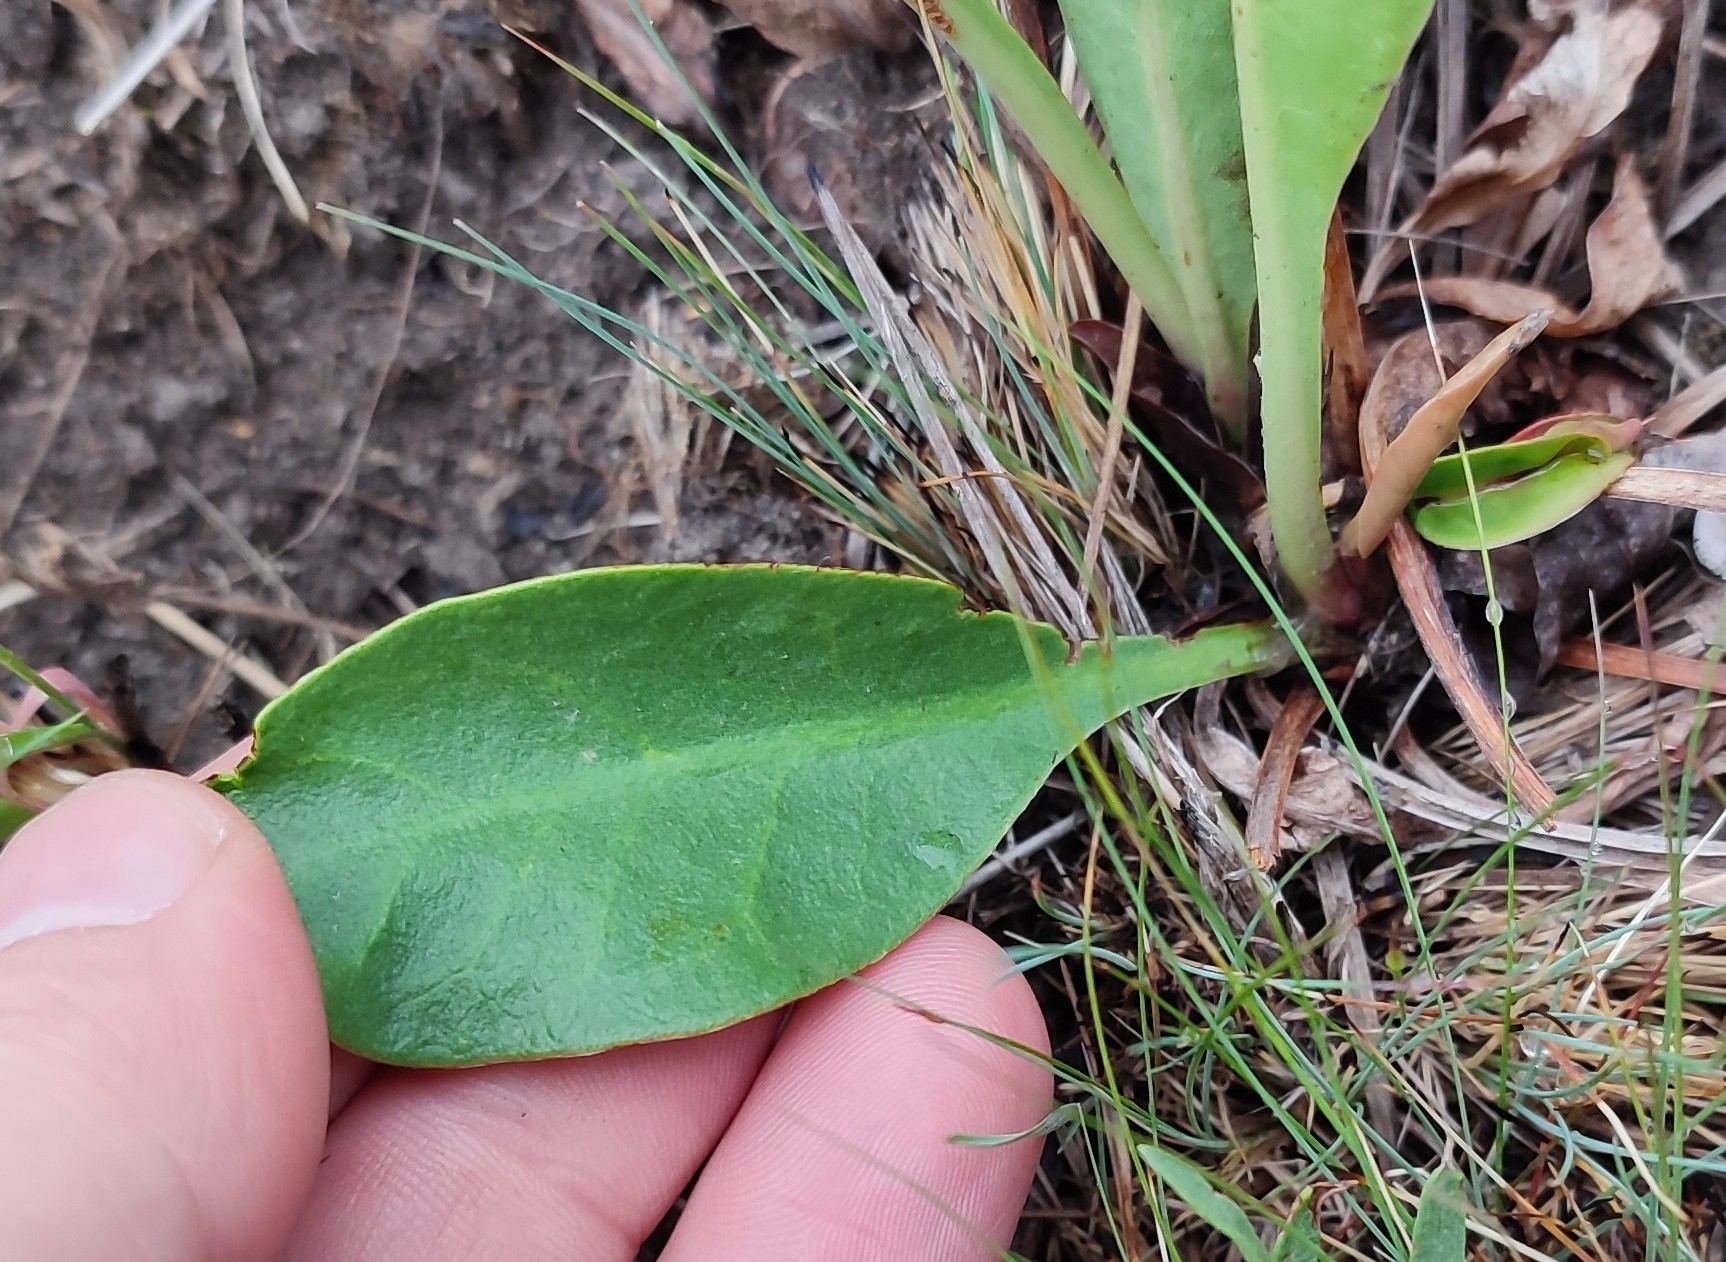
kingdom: Plantae
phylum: Tracheophyta
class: Magnoliopsida
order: Caryophyllales
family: Plumbaginaceae
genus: Limonium
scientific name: Limonium gmelini
